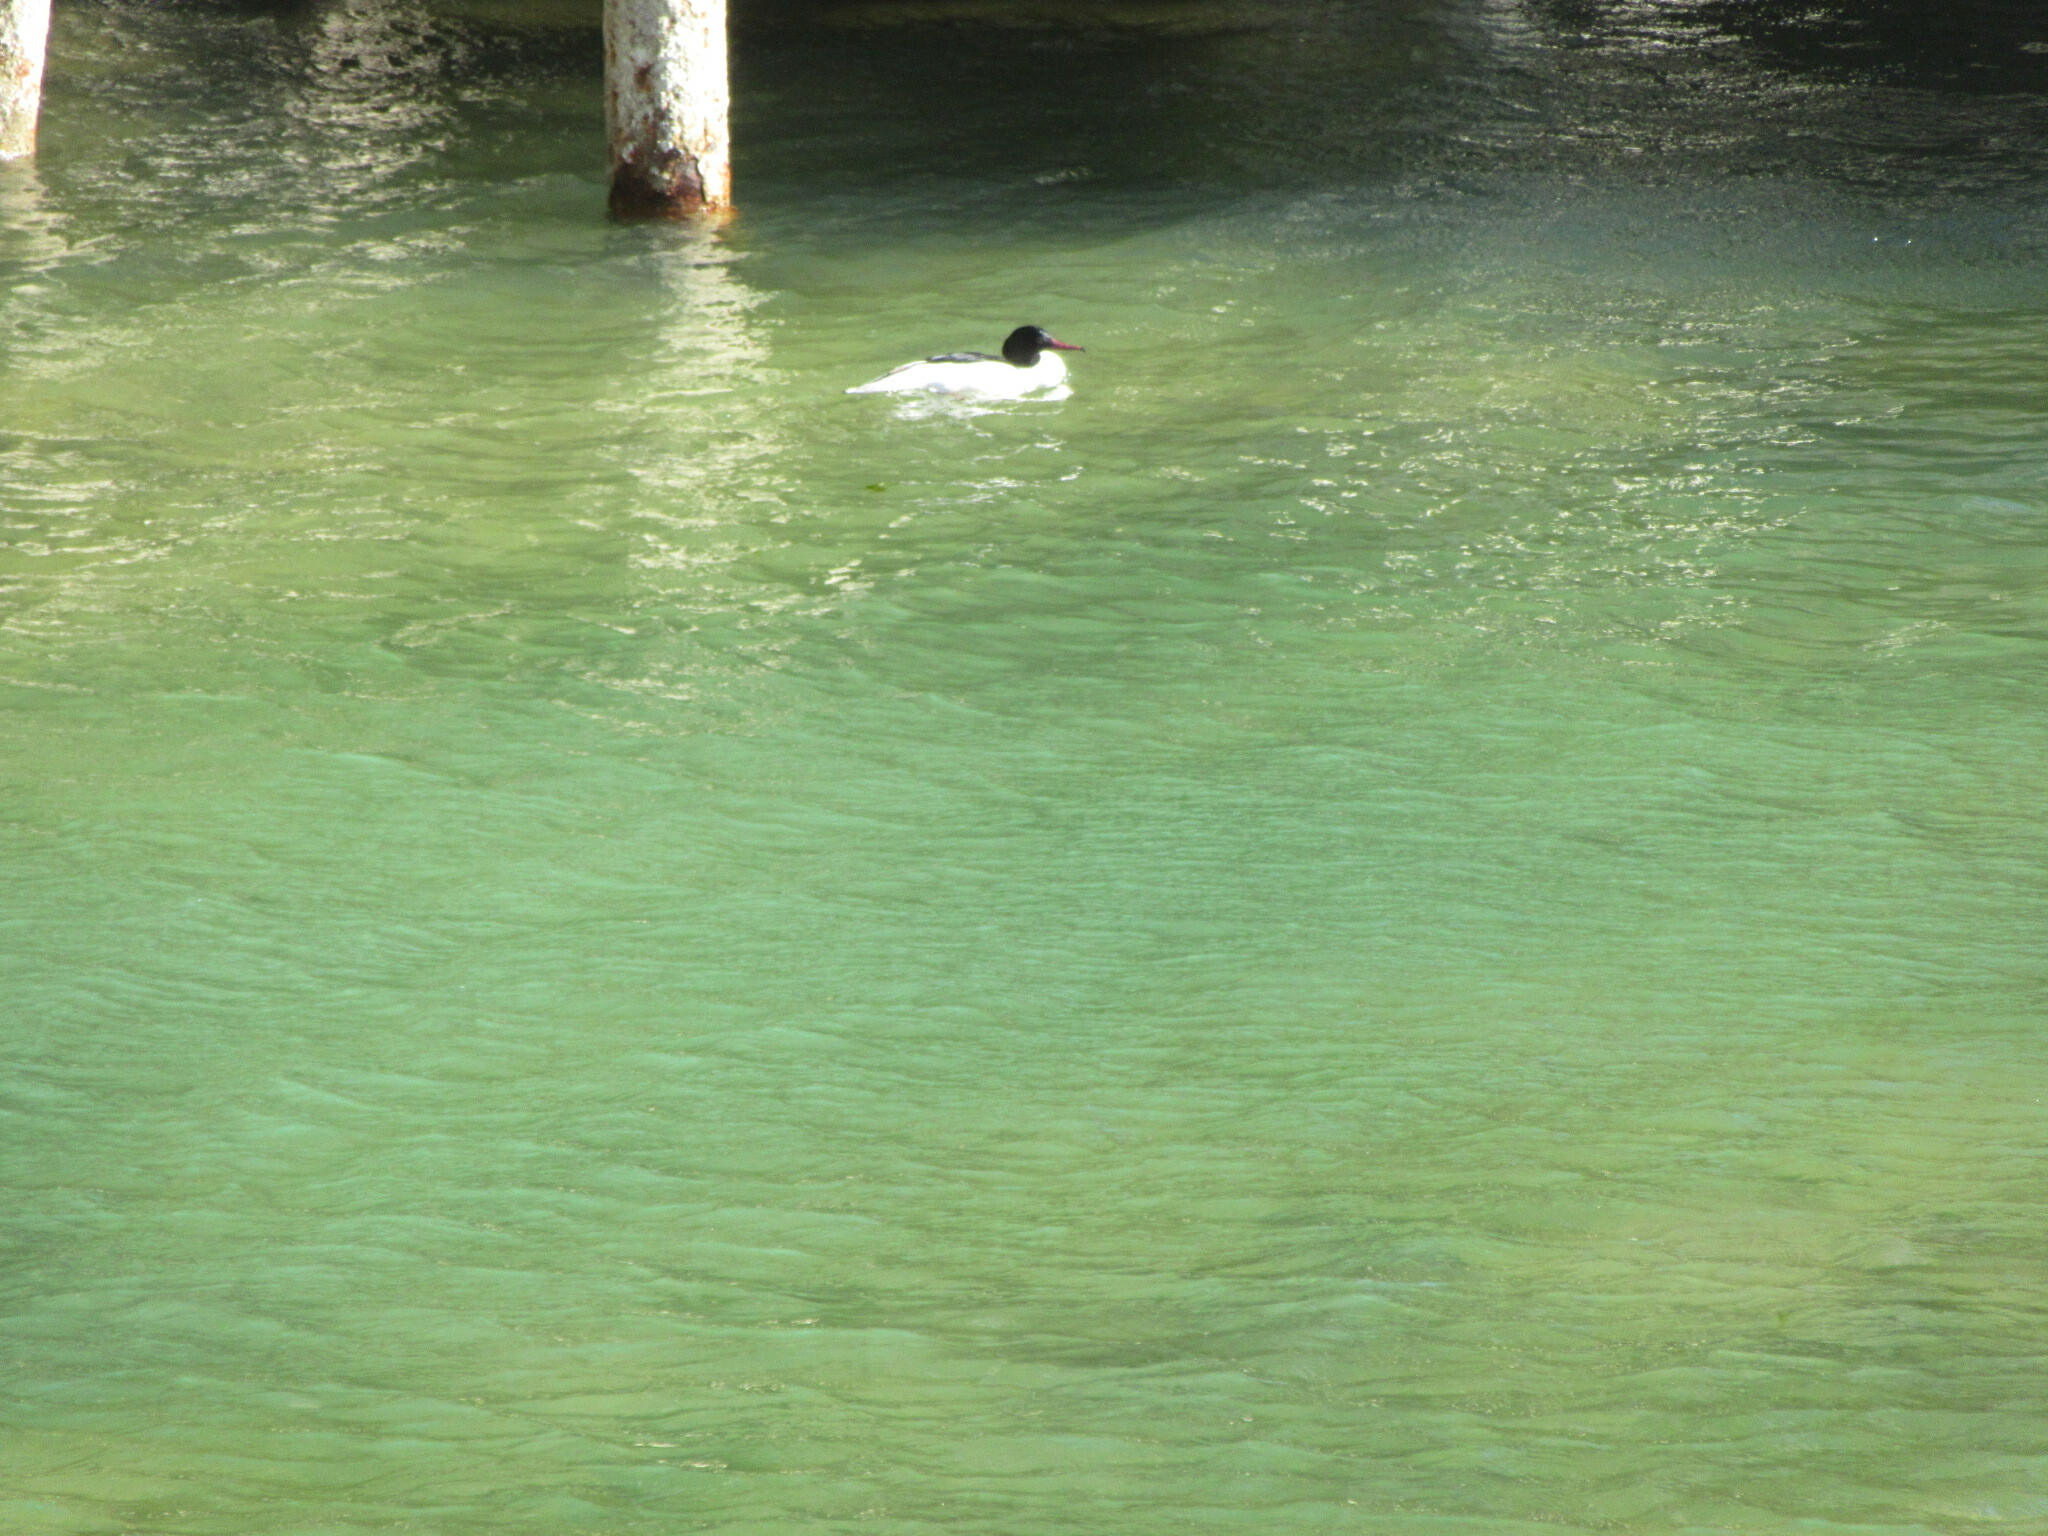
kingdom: Animalia
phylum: Chordata
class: Aves
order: Anseriformes
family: Anatidae
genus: Mergus
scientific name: Mergus merganser
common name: Common merganser
